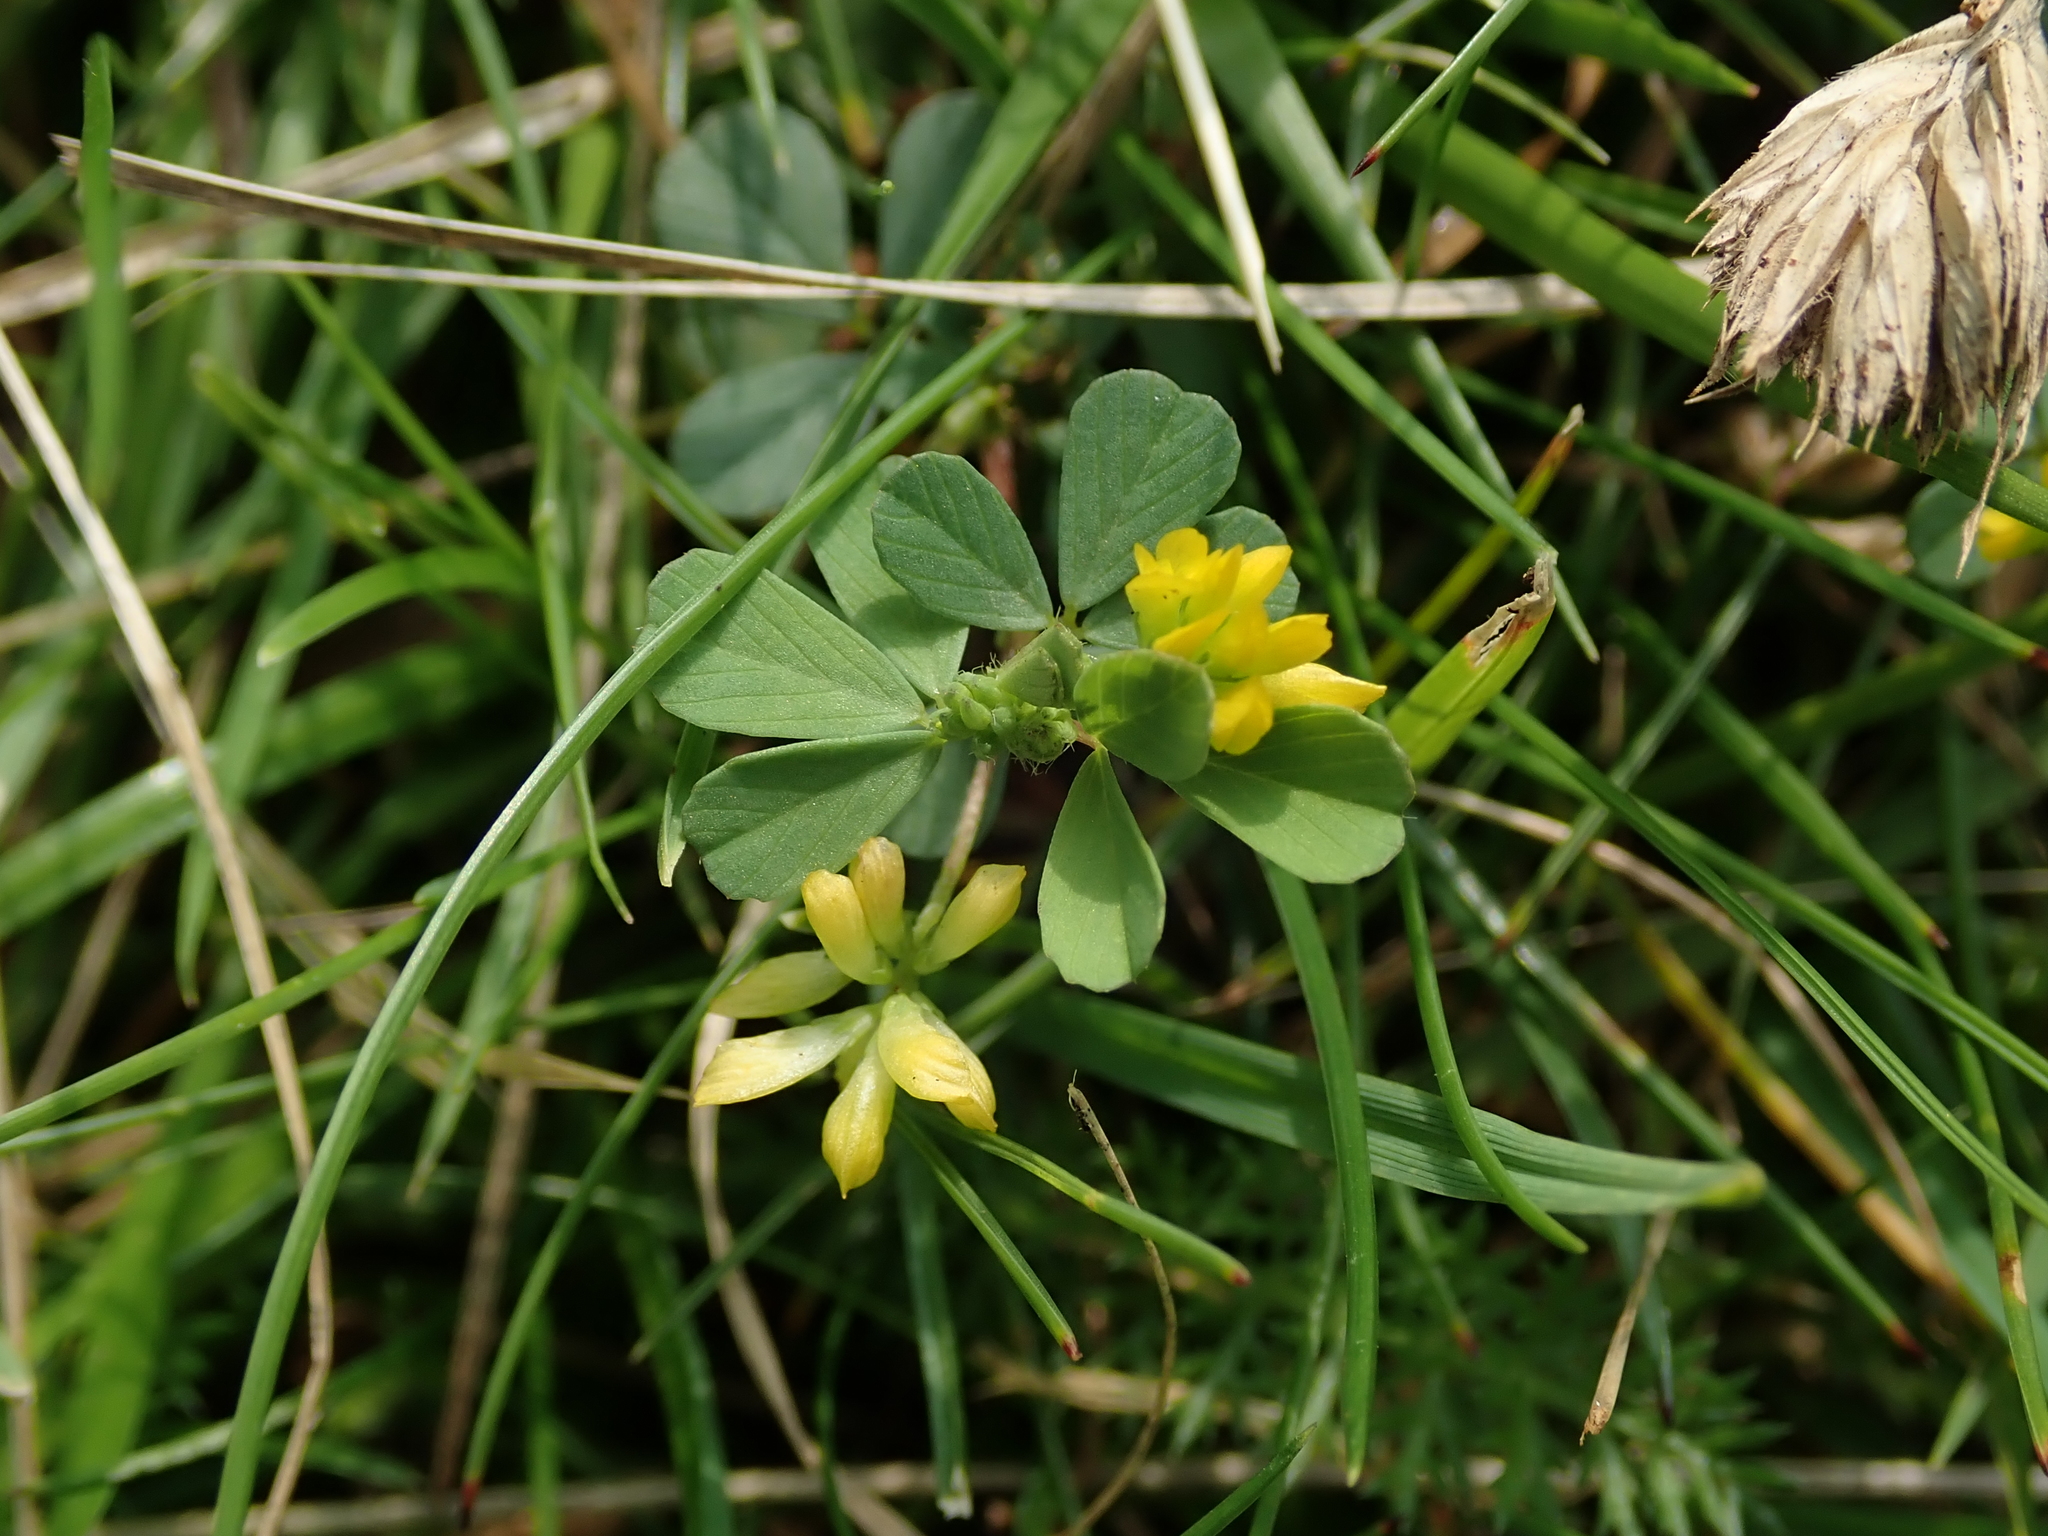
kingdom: Plantae
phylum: Tracheophyta
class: Magnoliopsida
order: Fabales
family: Fabaceae
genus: Trifolium
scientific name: Trifolium dubium
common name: Suckling clover
